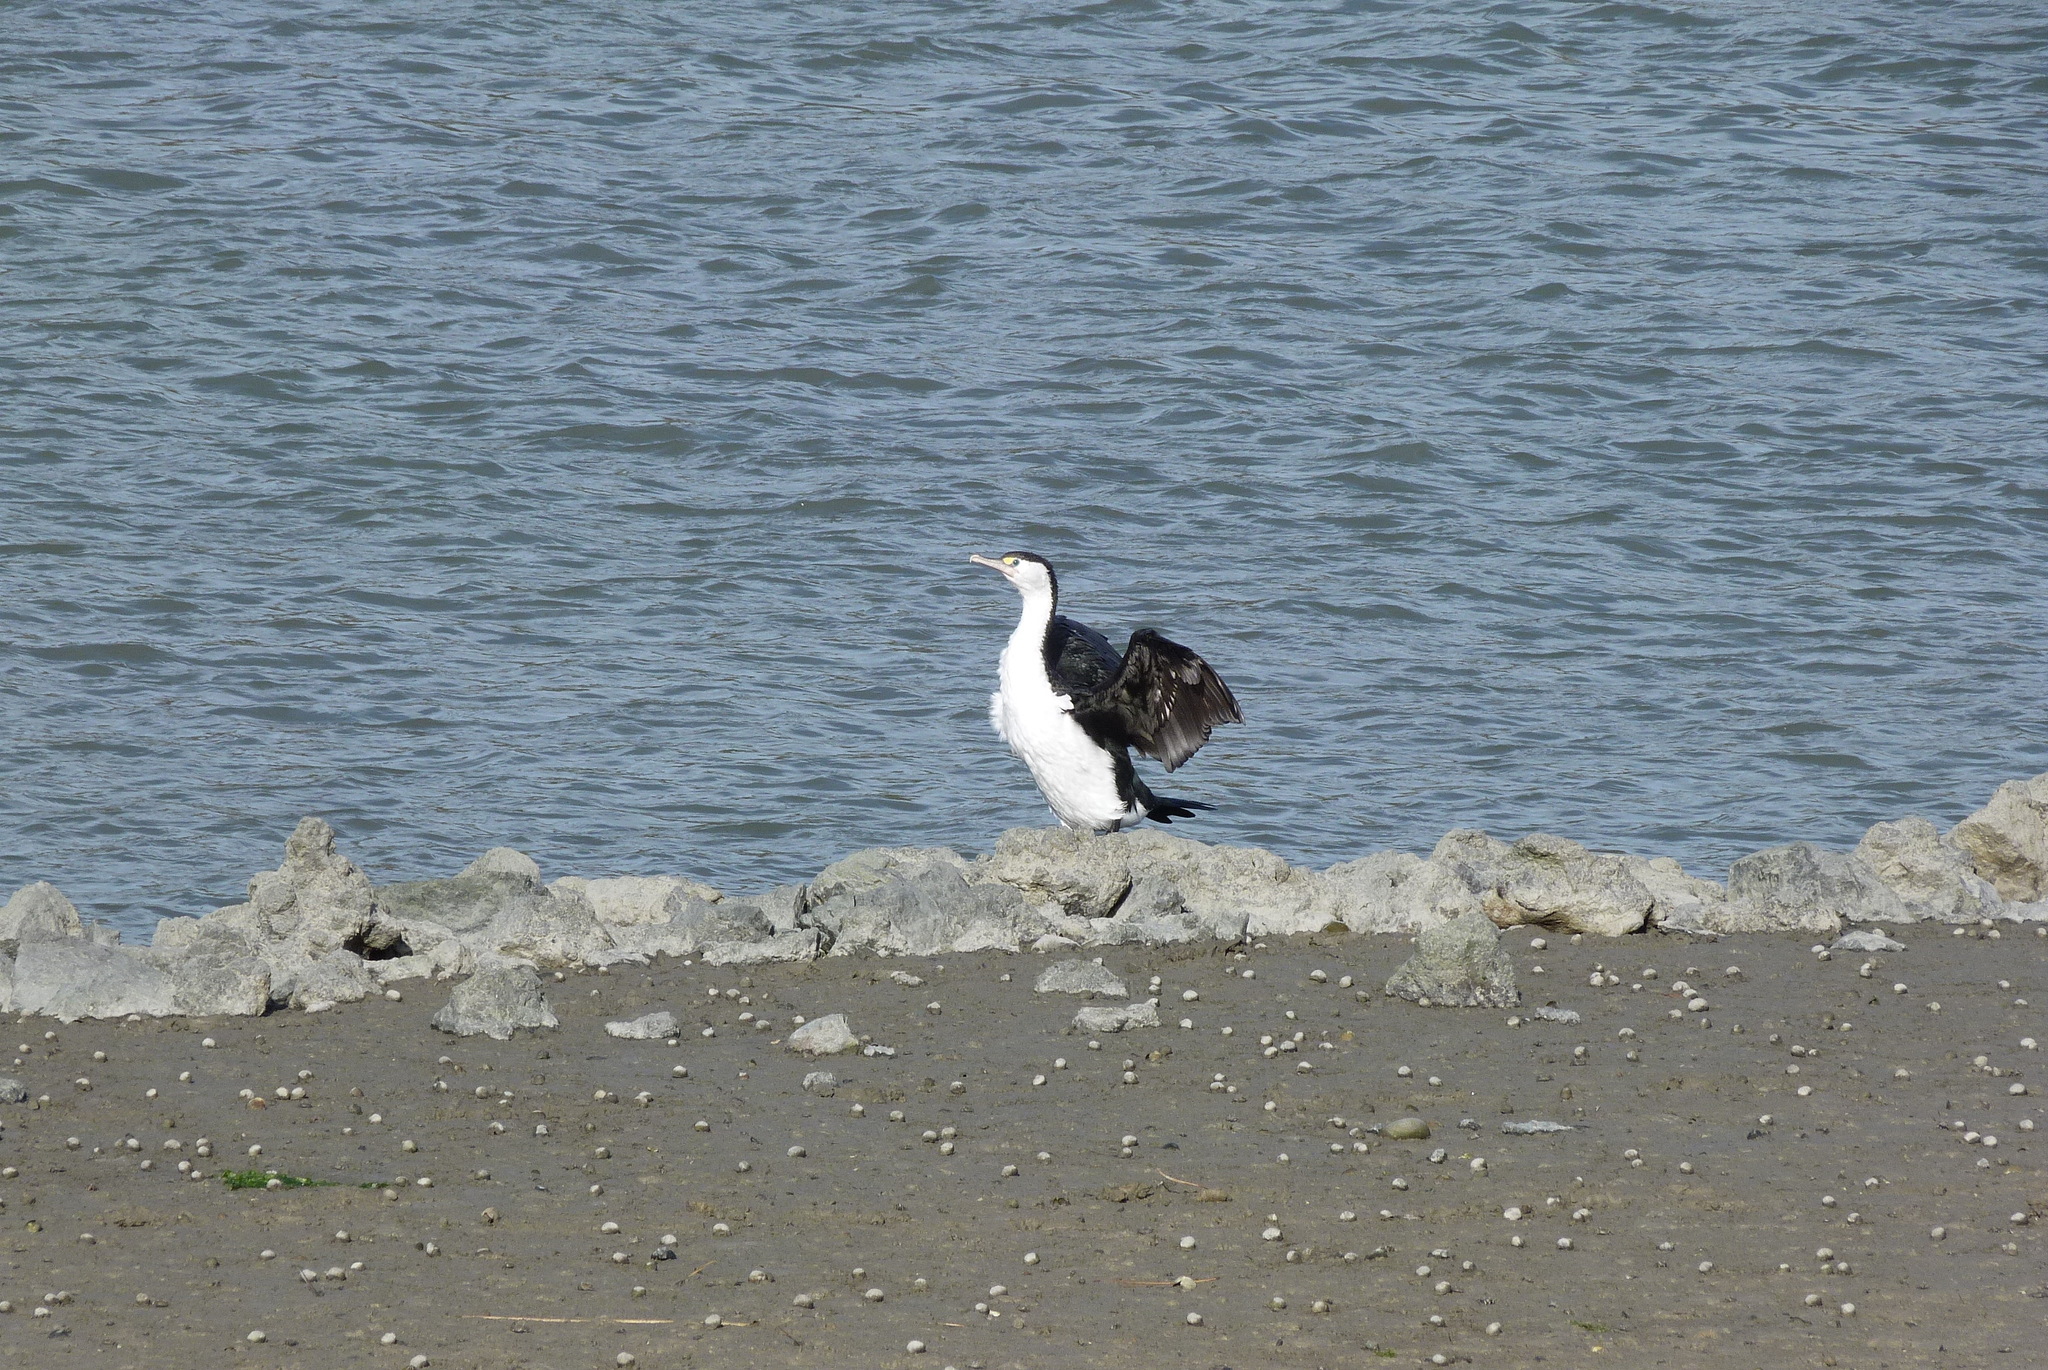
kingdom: Animalia
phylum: Chordata
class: Aves
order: Suliformes
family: Phalacrocoracidae
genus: Phalacrocorax
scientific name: Phalacrocorax varius
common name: Pied cormorant
